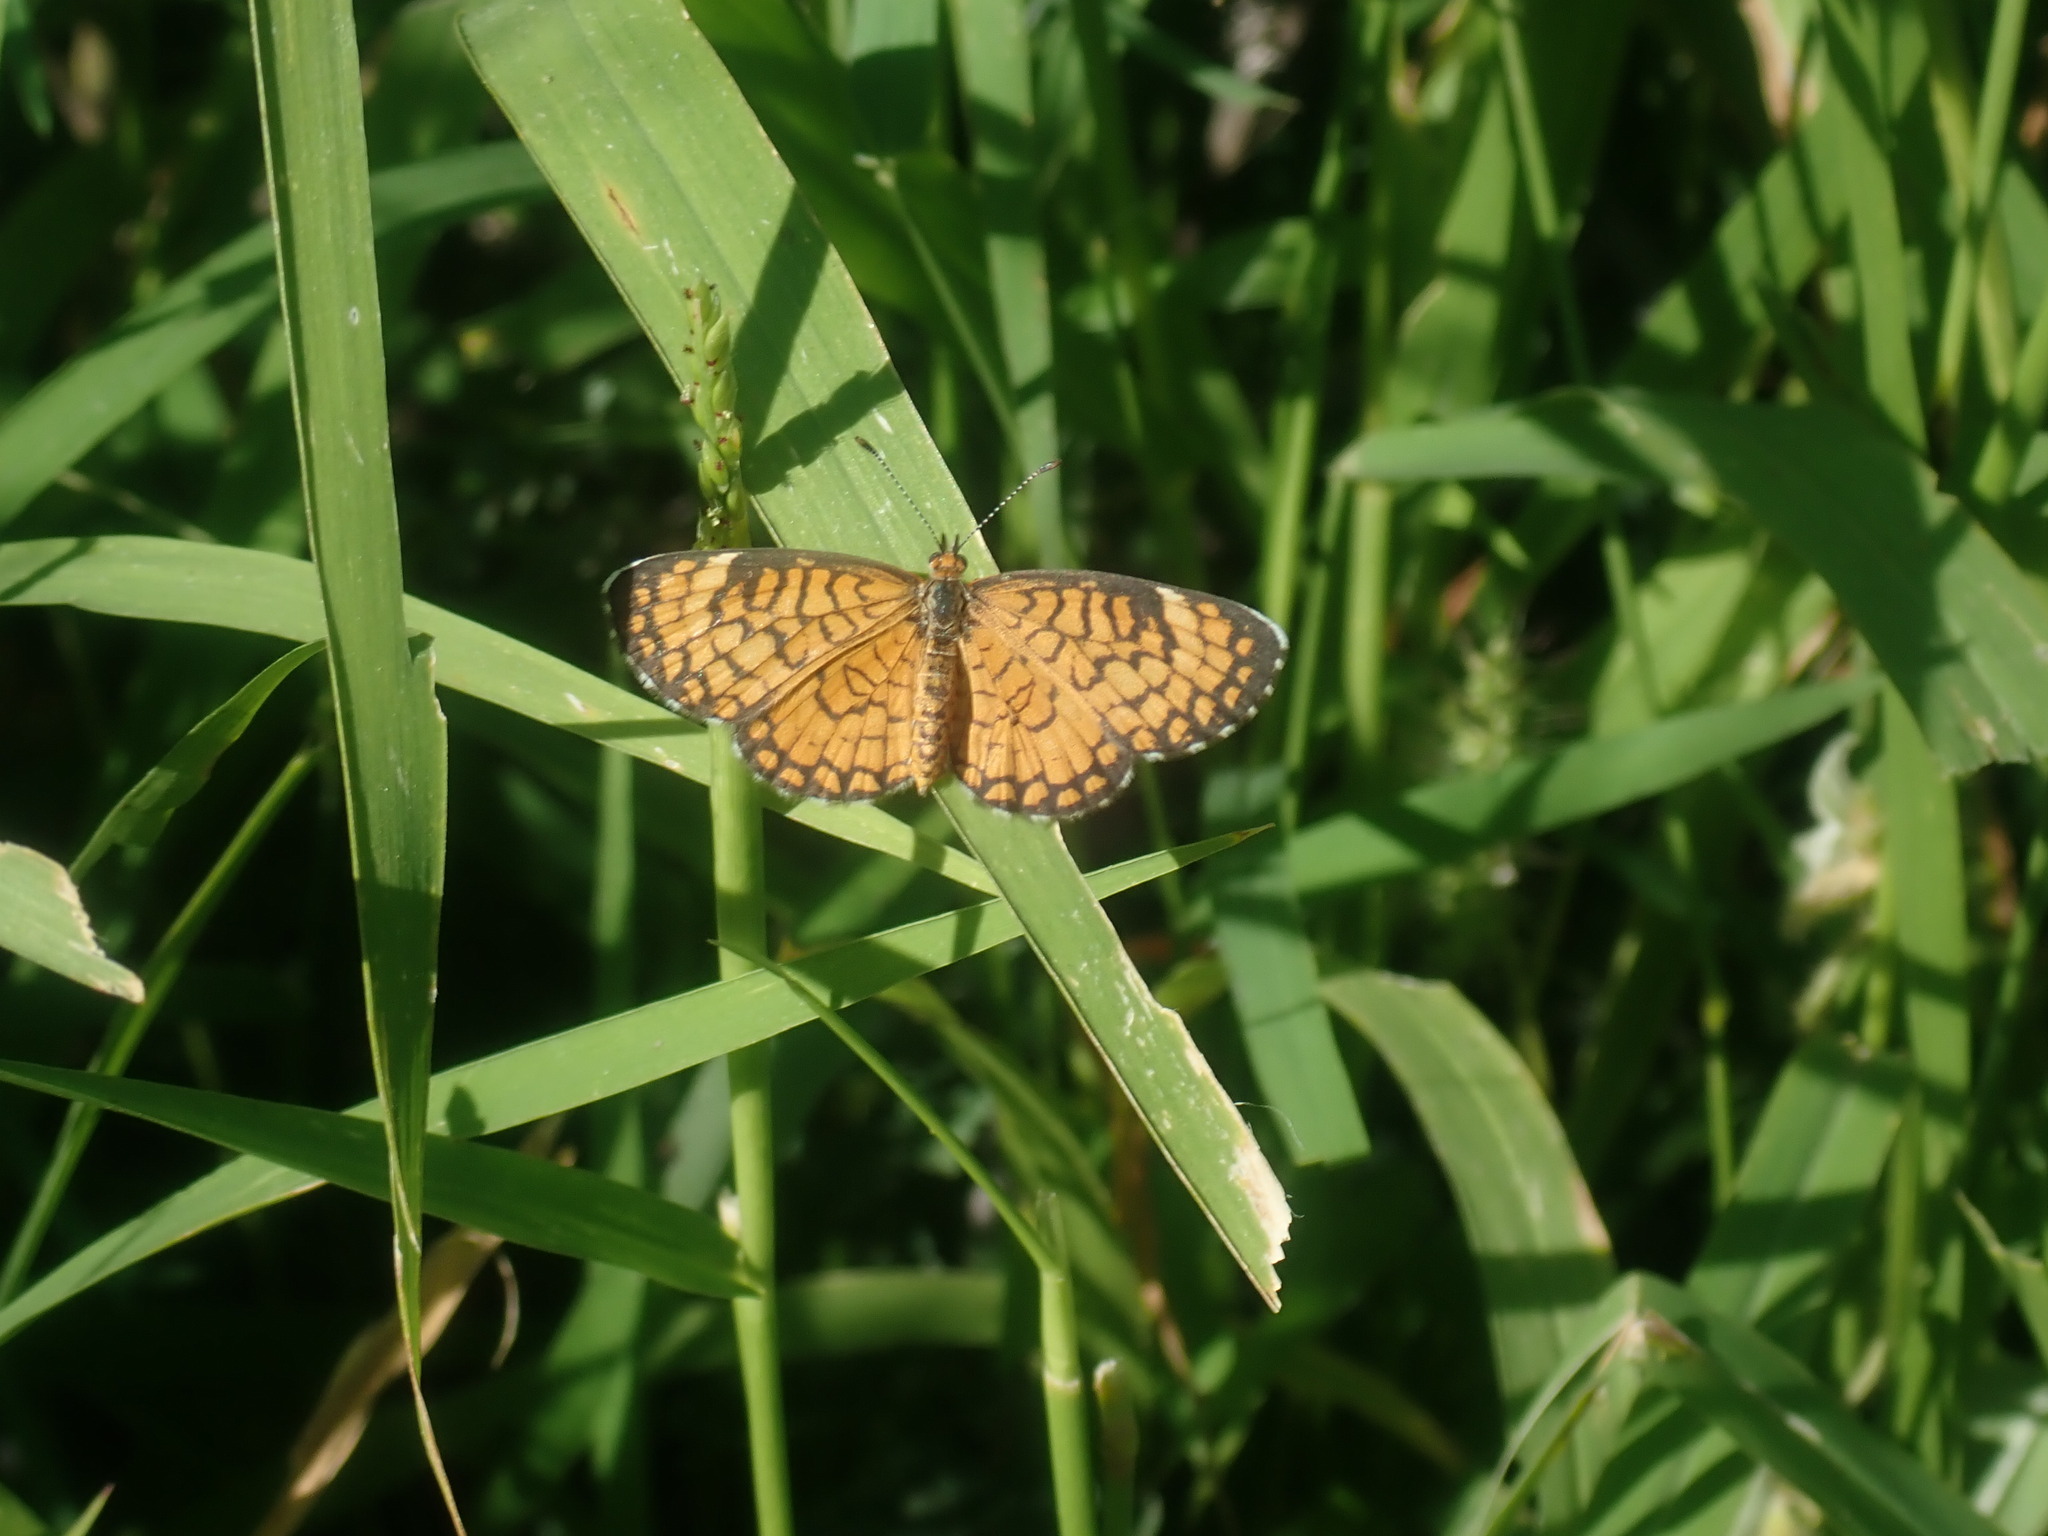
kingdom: Animalia
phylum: Arthropoda
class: Insecta
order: Lepidoptera
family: Nymphalidae
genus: Dymasia
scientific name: Dymasia dymas
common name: Tiny checkerspot
